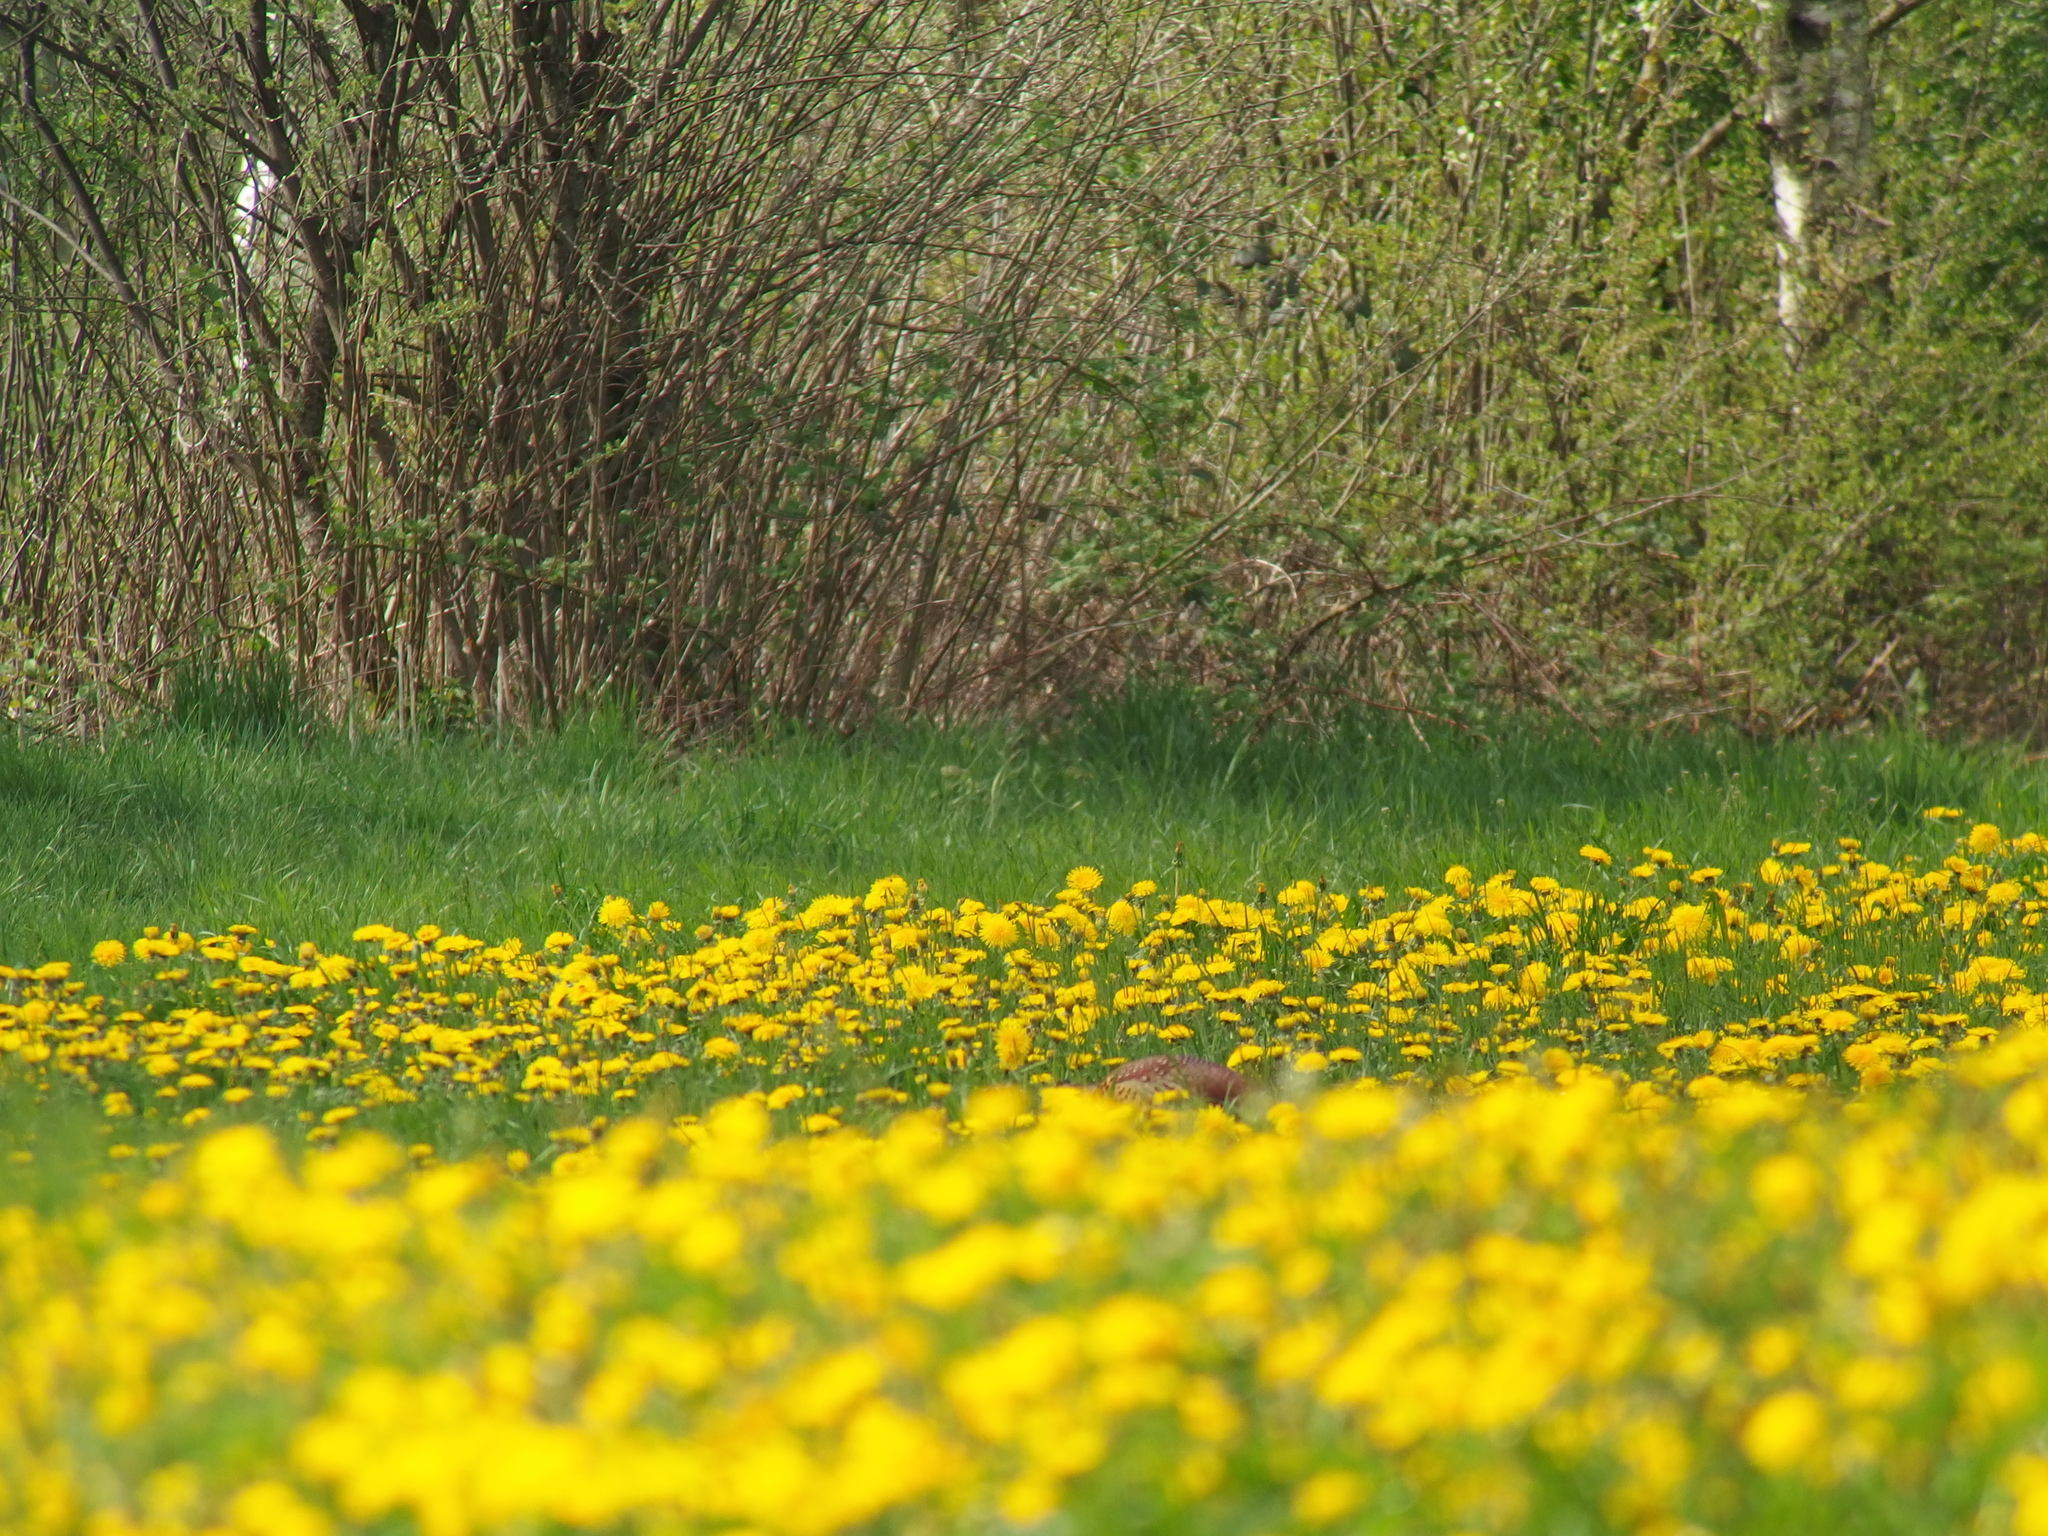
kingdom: Animalia
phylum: Chordata
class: Aves
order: Galliformes
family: Phasianidae
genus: Phasianus
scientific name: Phasianus colchicus
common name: Common pheasant
